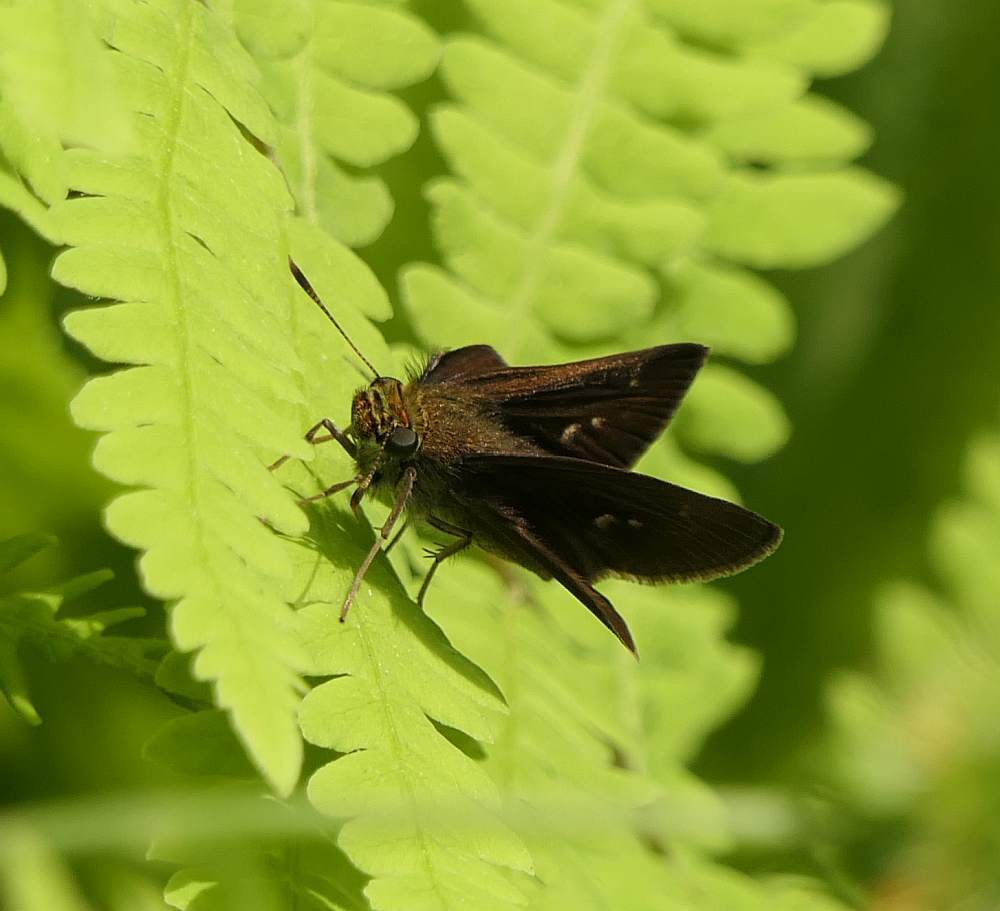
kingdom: Animalia
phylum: Arthropoda
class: Insecta
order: Lepidoptera
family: Hesperiidae
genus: Euphyes
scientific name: Euphyes vestris
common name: Dun skipper
